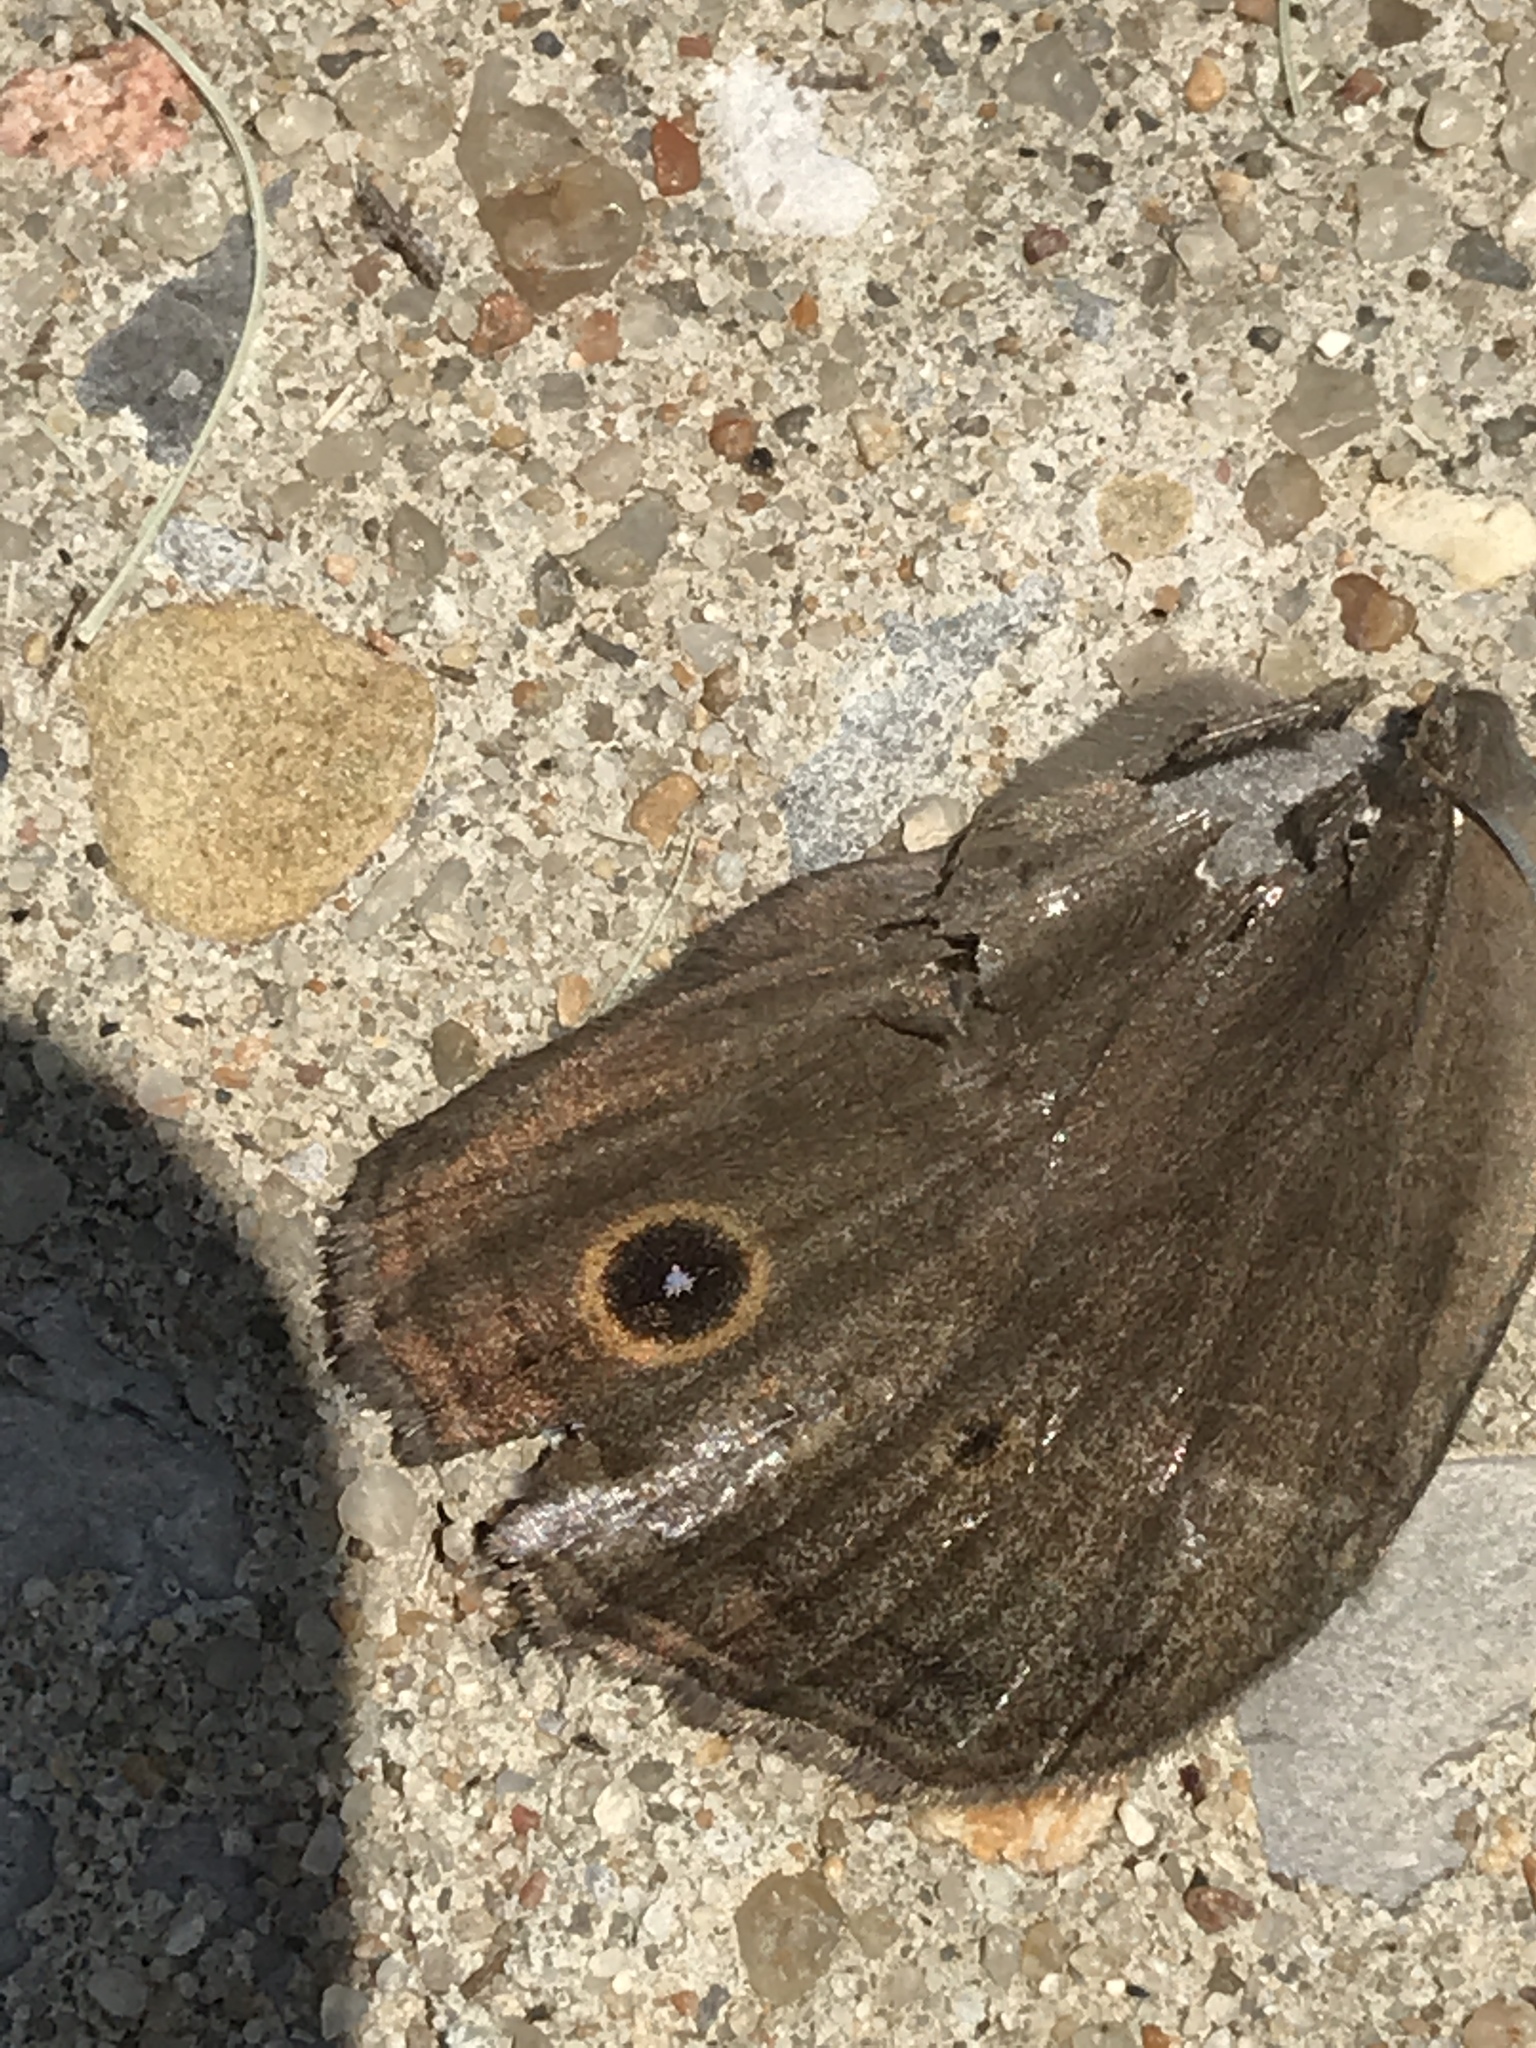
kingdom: Animalia
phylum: Arthropoda
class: Insecta
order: Lepidoptera
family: Nymphalidae
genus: Cercyonis
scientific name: Cercyonis pegala
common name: Common wood-nymph
